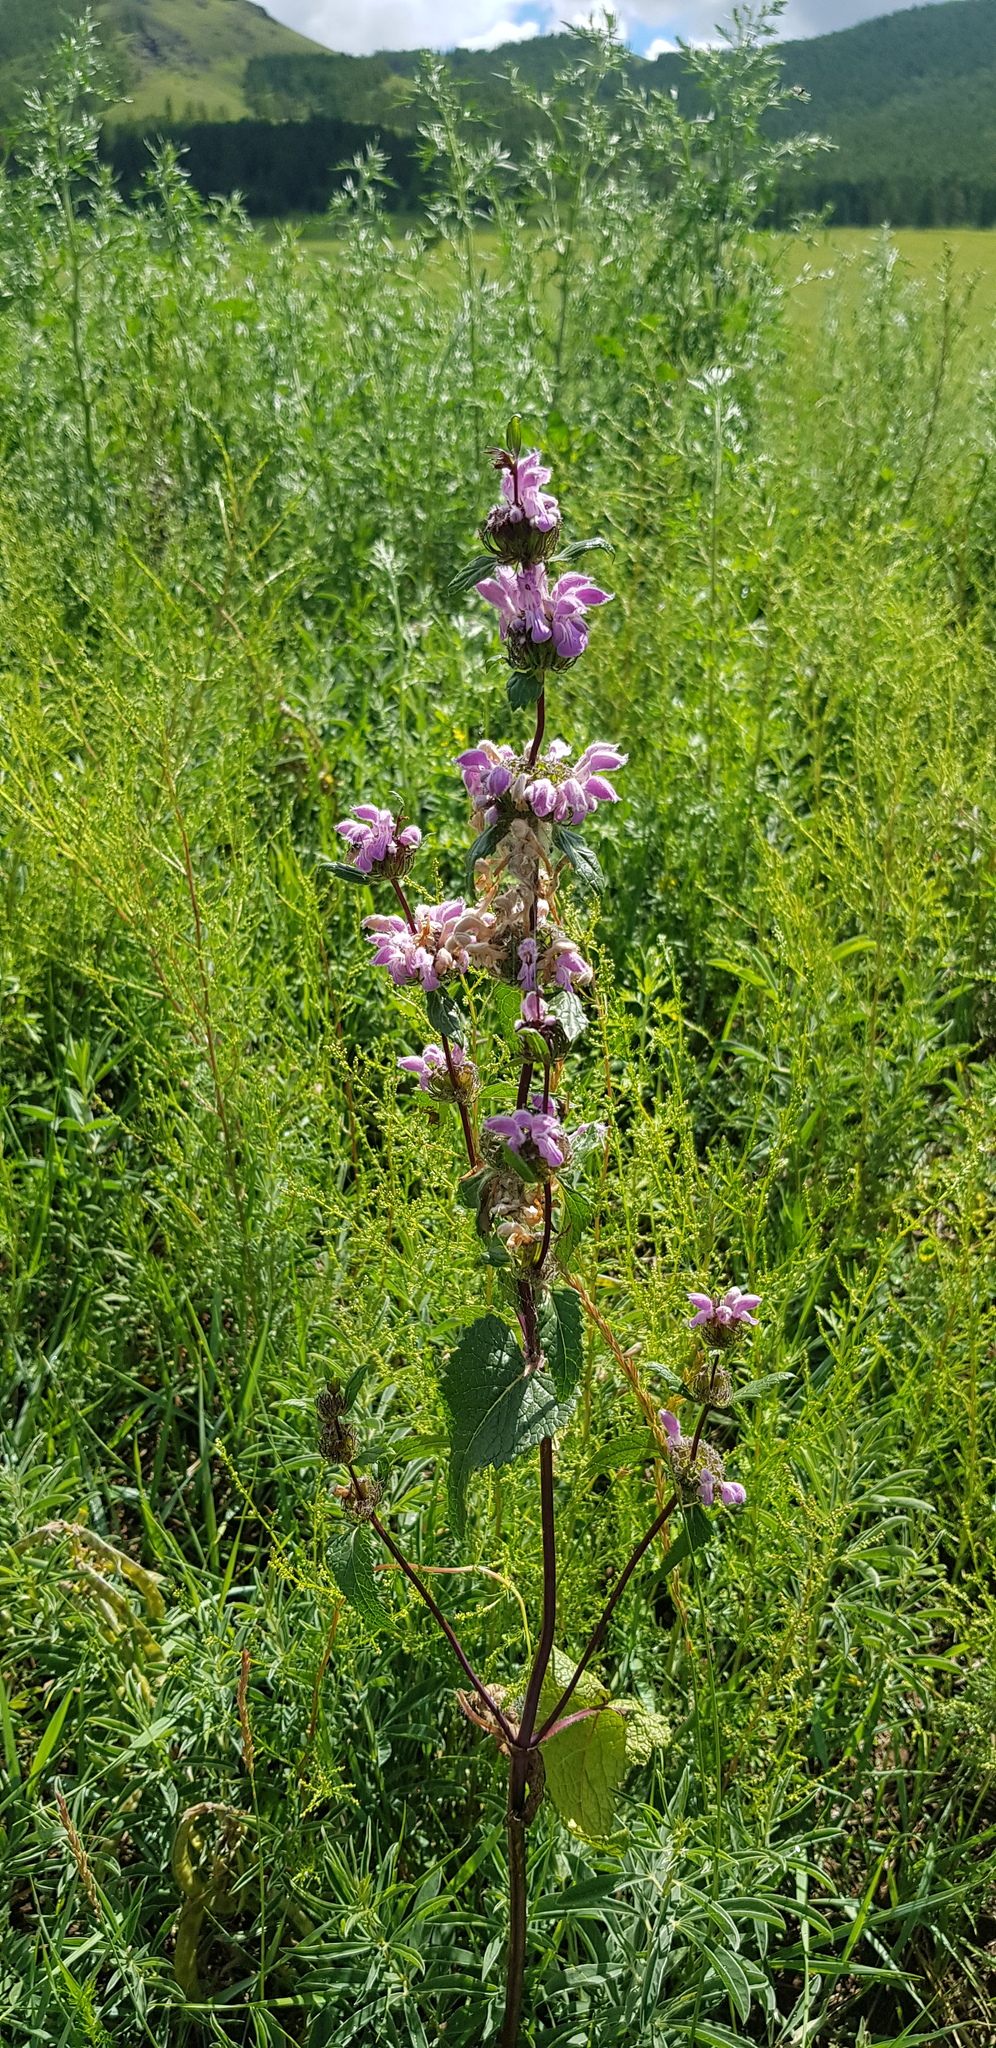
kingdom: Plantae
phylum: Tracheophyta
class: Magnoliopsida
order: Lamiales
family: Lamiaceae
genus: Phlomoides
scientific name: Phlomoides tuberosa
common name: Tuberous jerusalem sage
